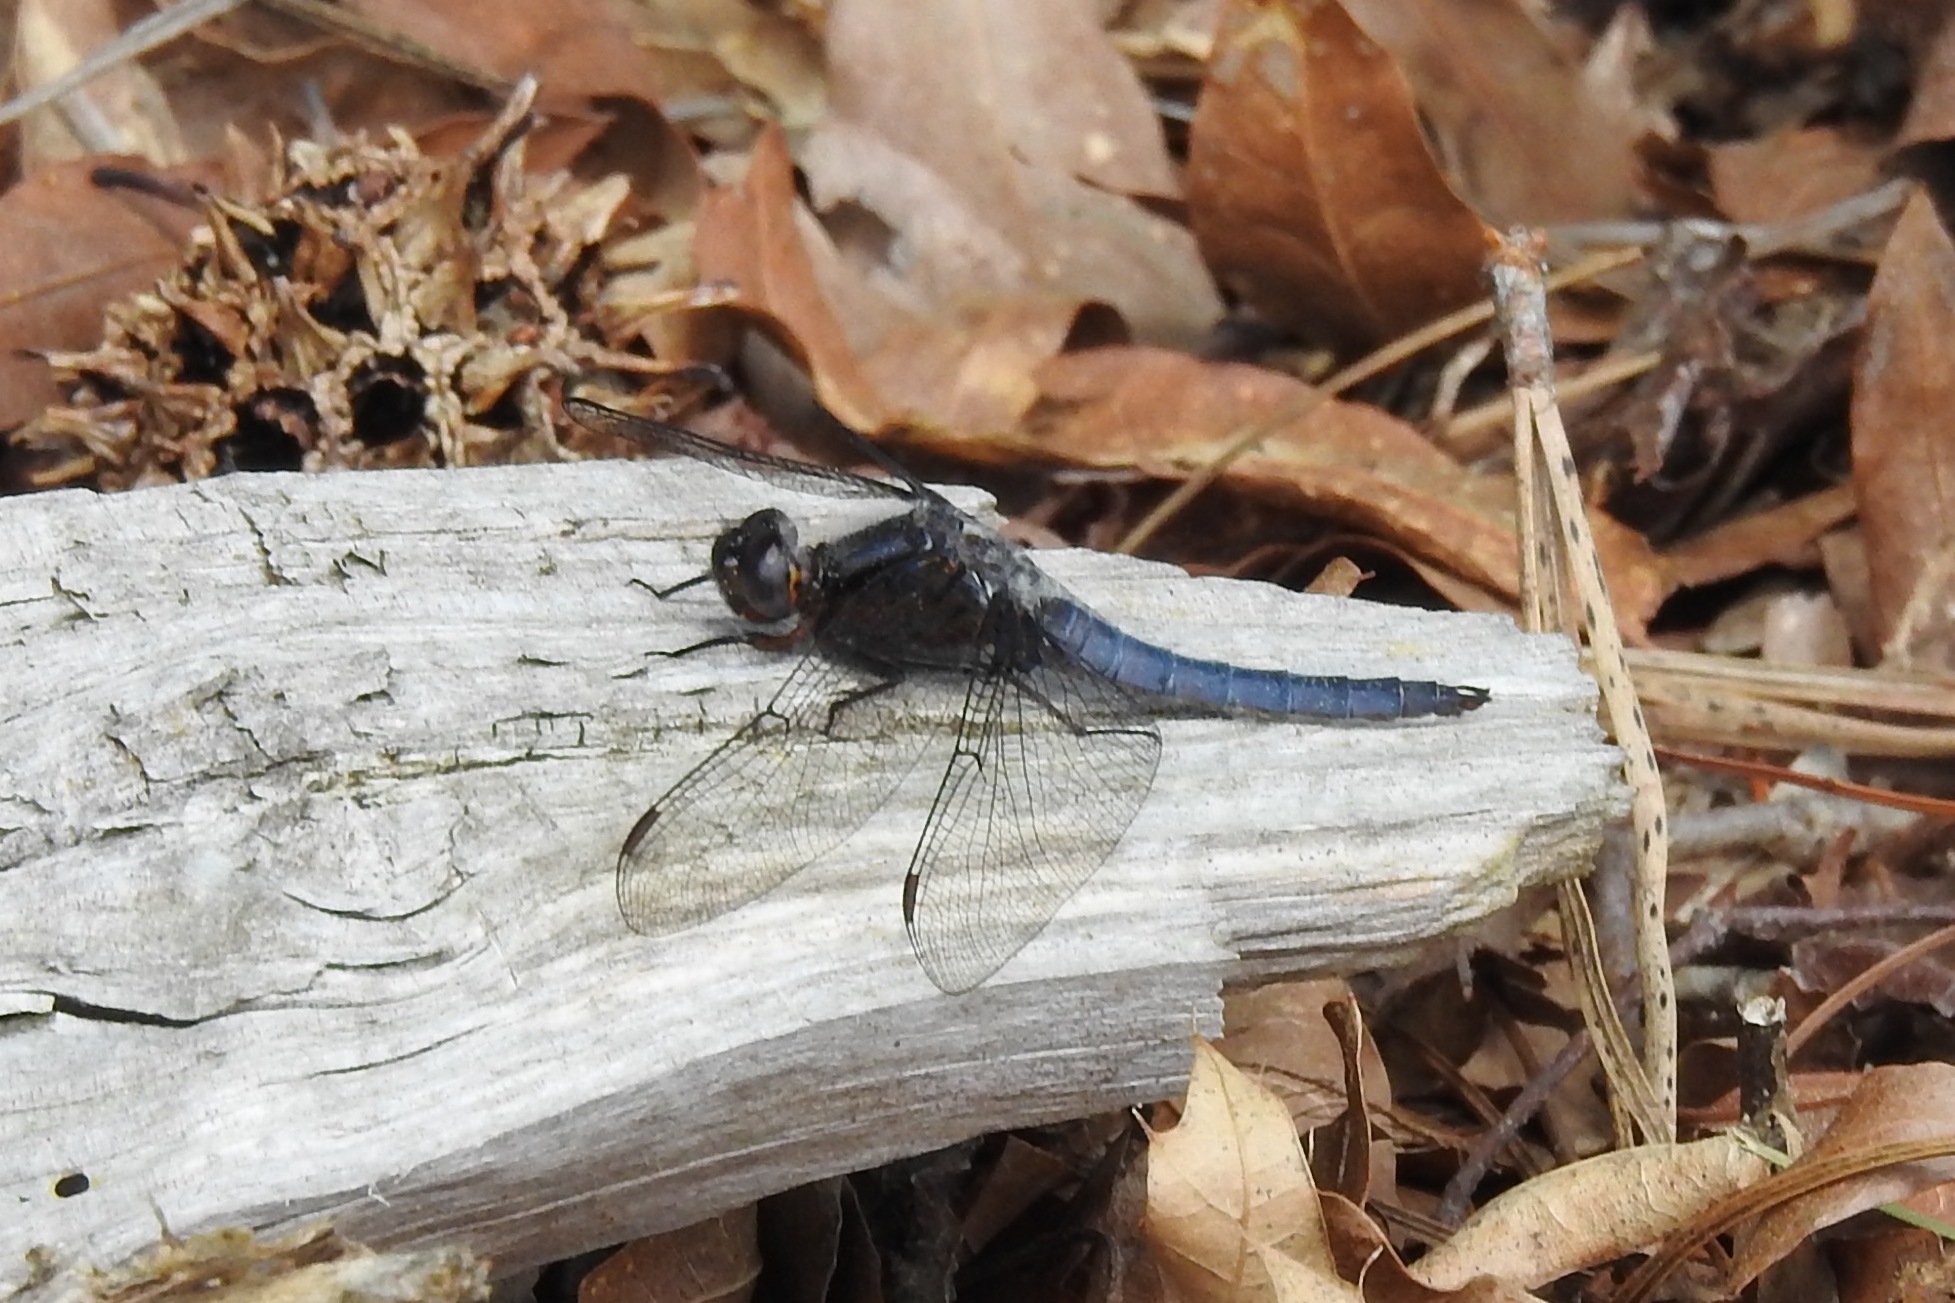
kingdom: Animalia
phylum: Arthropoda
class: Insecta
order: Odonata
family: Libellulidae
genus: Ladona
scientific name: Ladona deplanata
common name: Blue corporal
